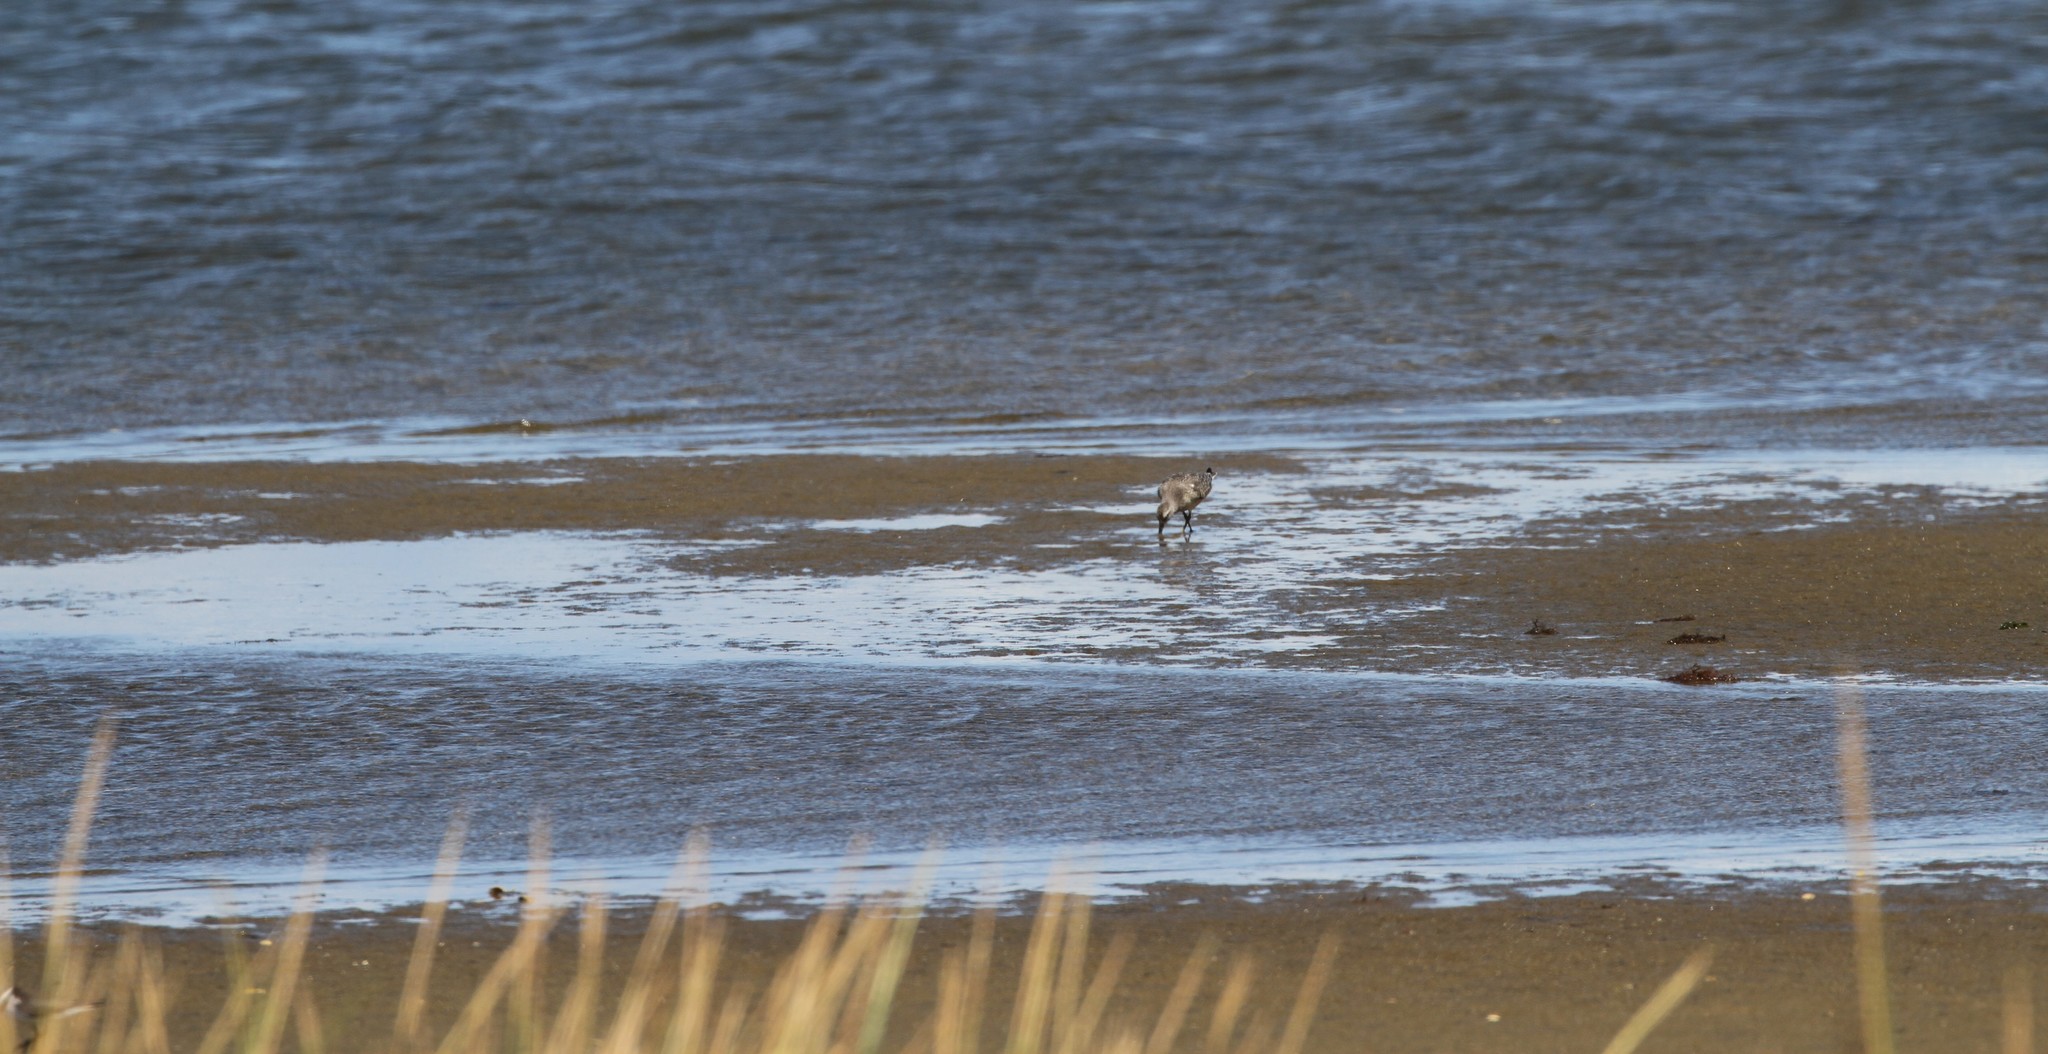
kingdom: Animalia
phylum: Chordata
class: Aves
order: Charadriiformes
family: Scolopacidae
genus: Calidris
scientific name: Calidris canutus
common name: Red knot
